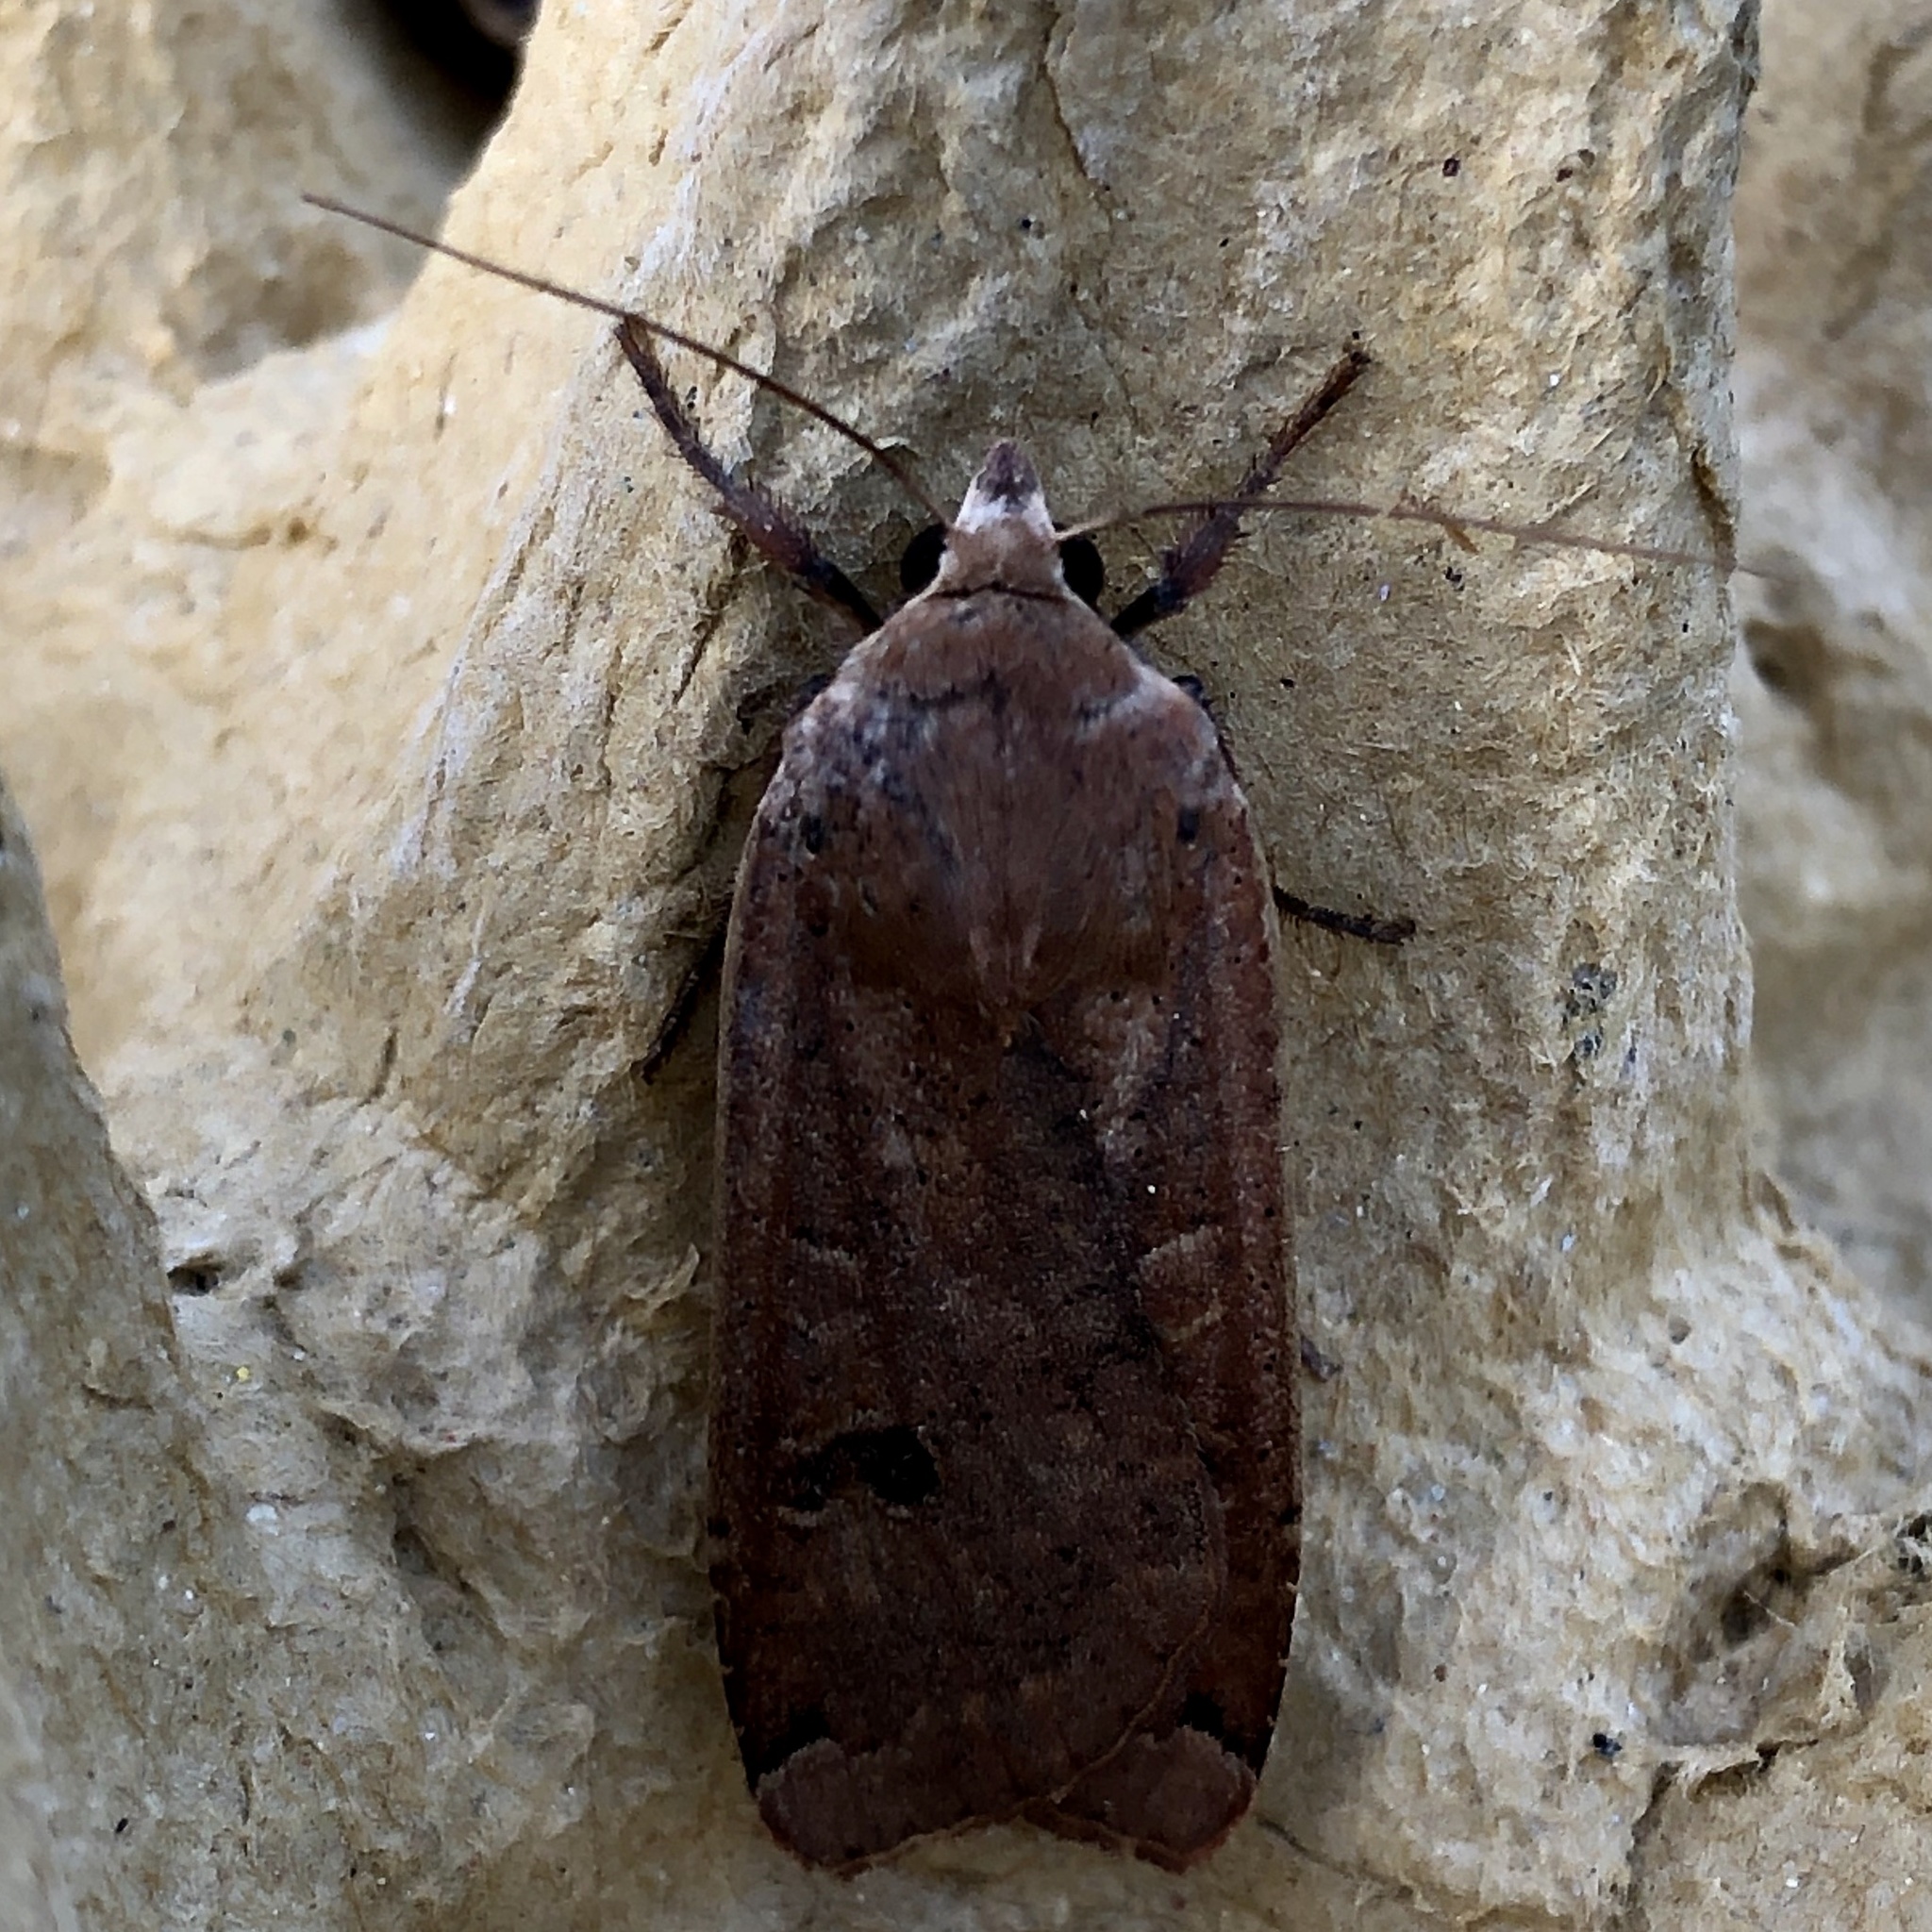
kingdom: Animalia
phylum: Arthropoda
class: Insecta
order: Lepidoptera
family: Noctuidae
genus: Noctua
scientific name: Noctua pronuba
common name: Large yellow underwing
